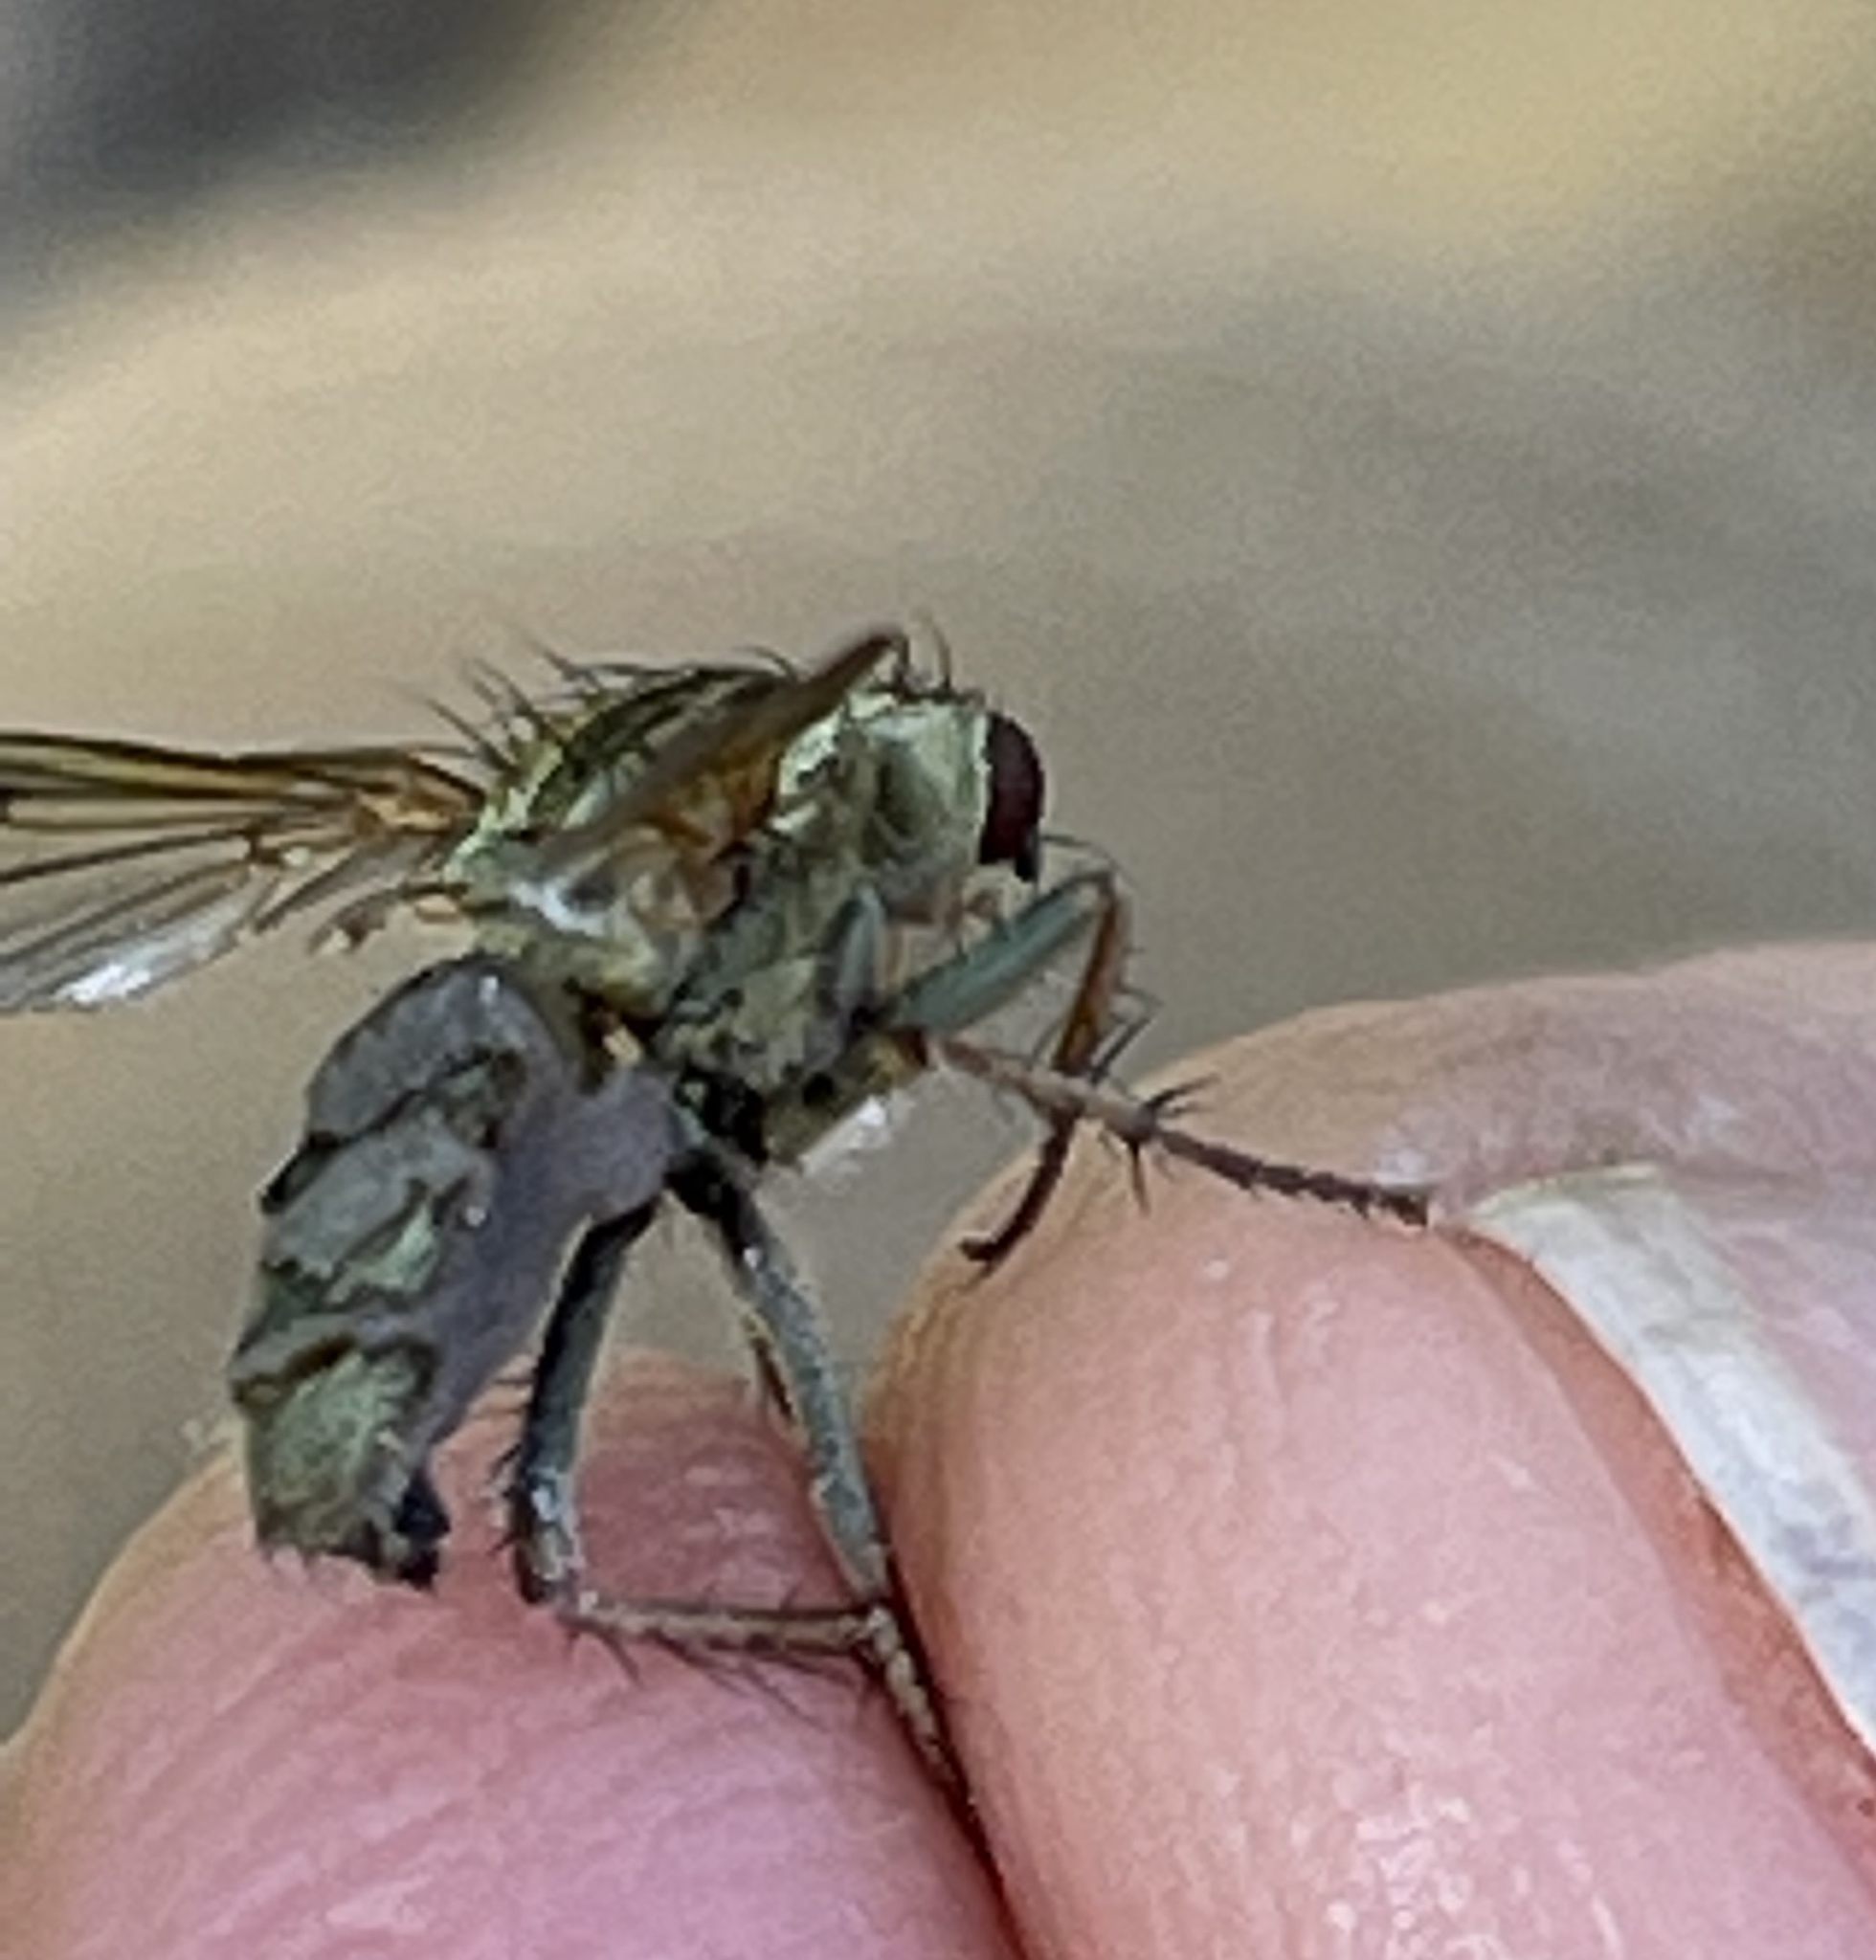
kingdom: Animalia
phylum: Arthropoda
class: Insecta
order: Diptera
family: Scathophagidae
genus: Scathophaga
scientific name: Scathophaga stercoraria
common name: Yellow dung fly
